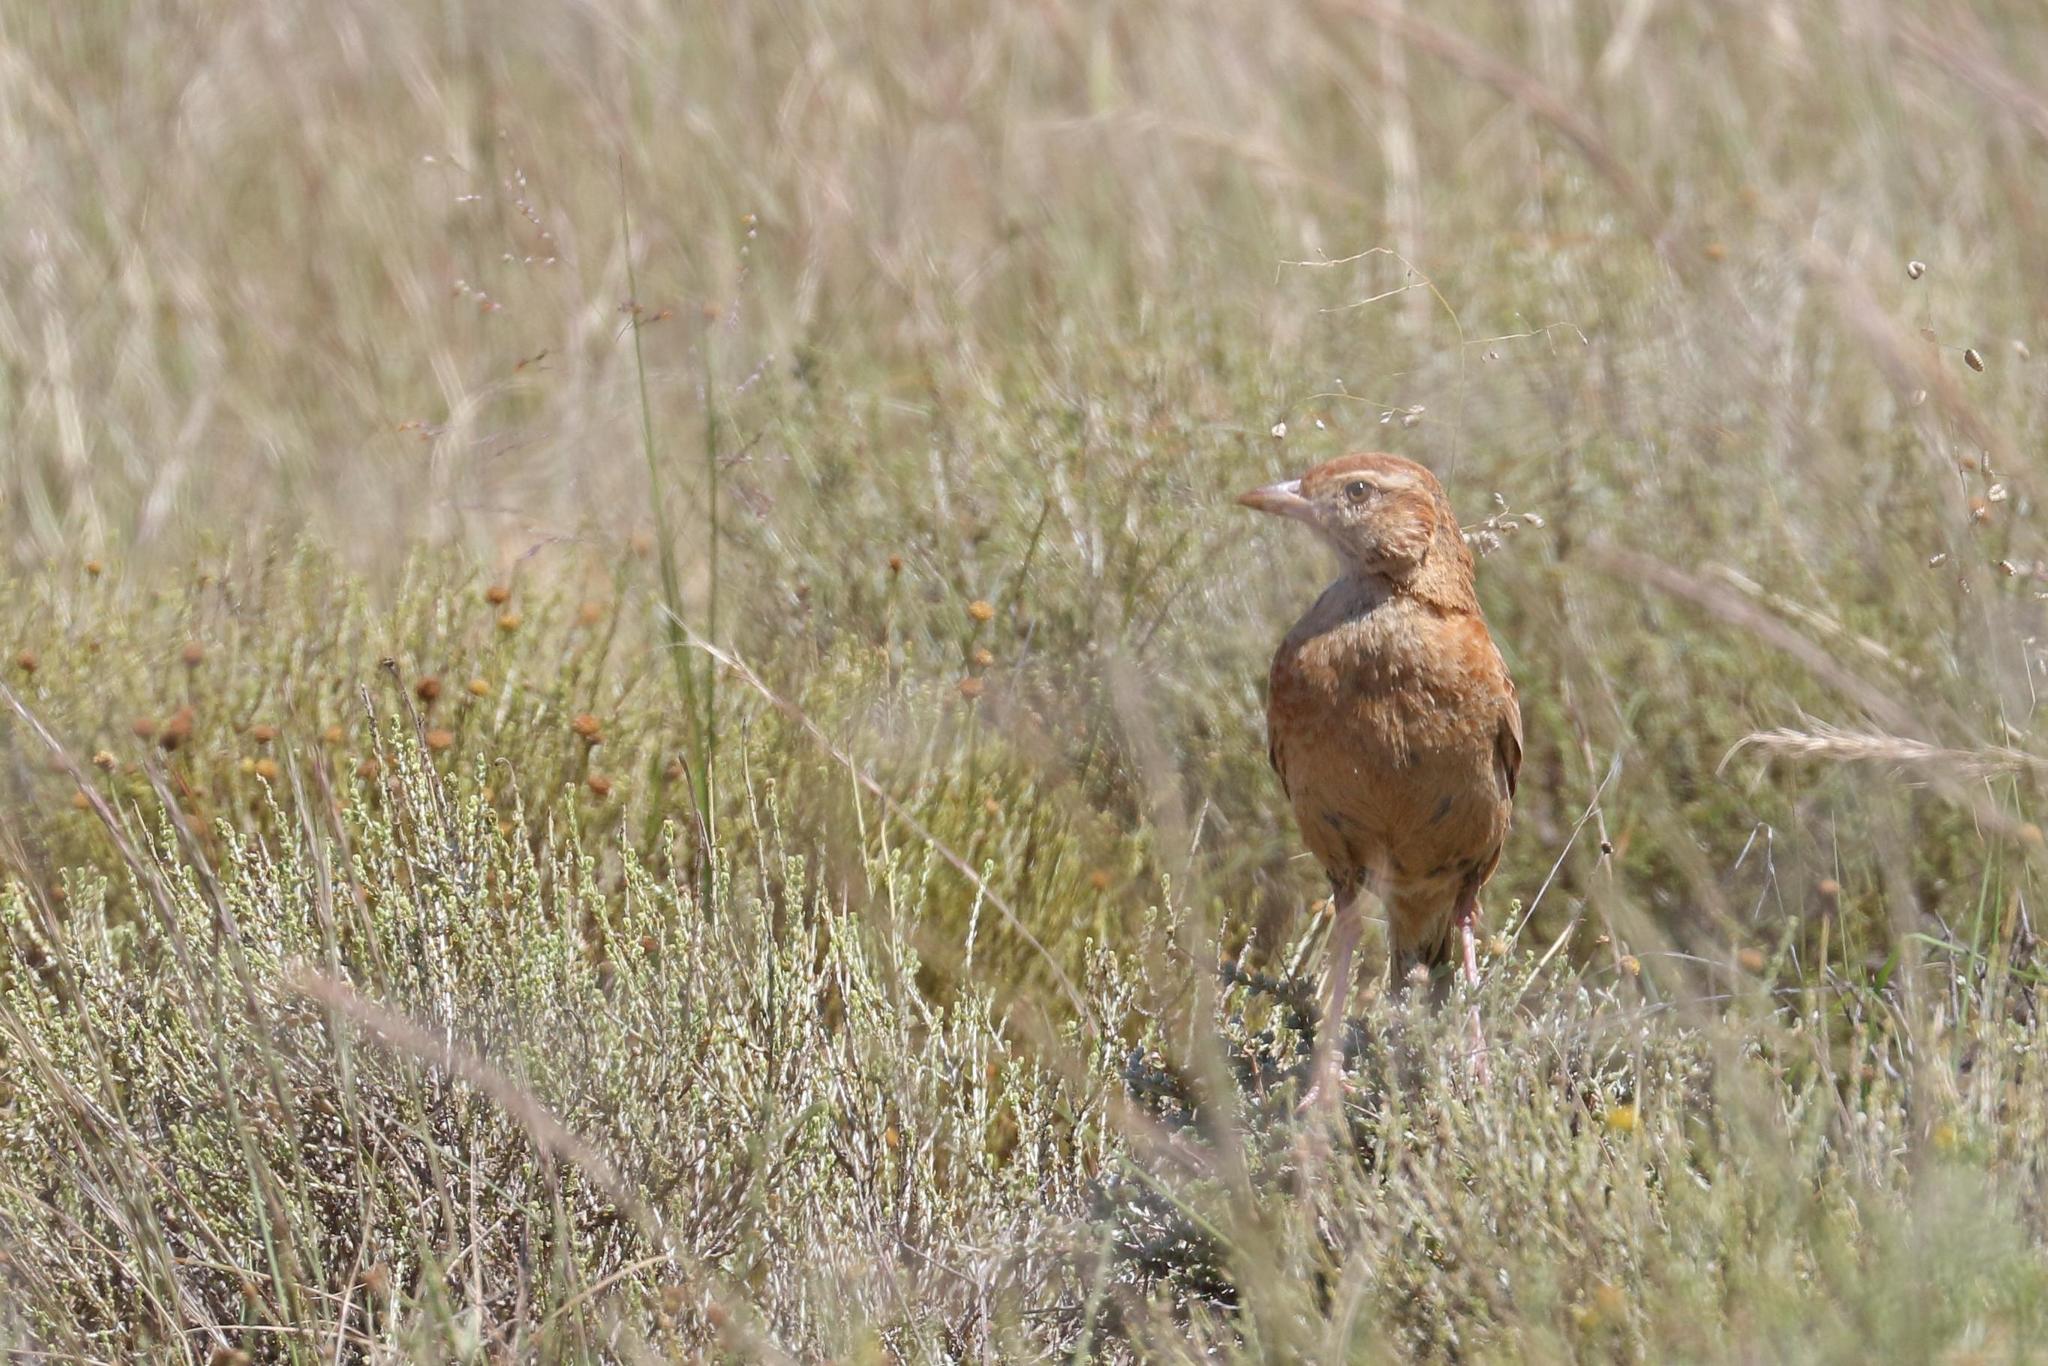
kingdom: Animalia
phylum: Chordata
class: Aves
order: Passeriformes
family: Alaudidae
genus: Mirafra
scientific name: Mirafra fasciolata
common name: Eastern clapper lark
